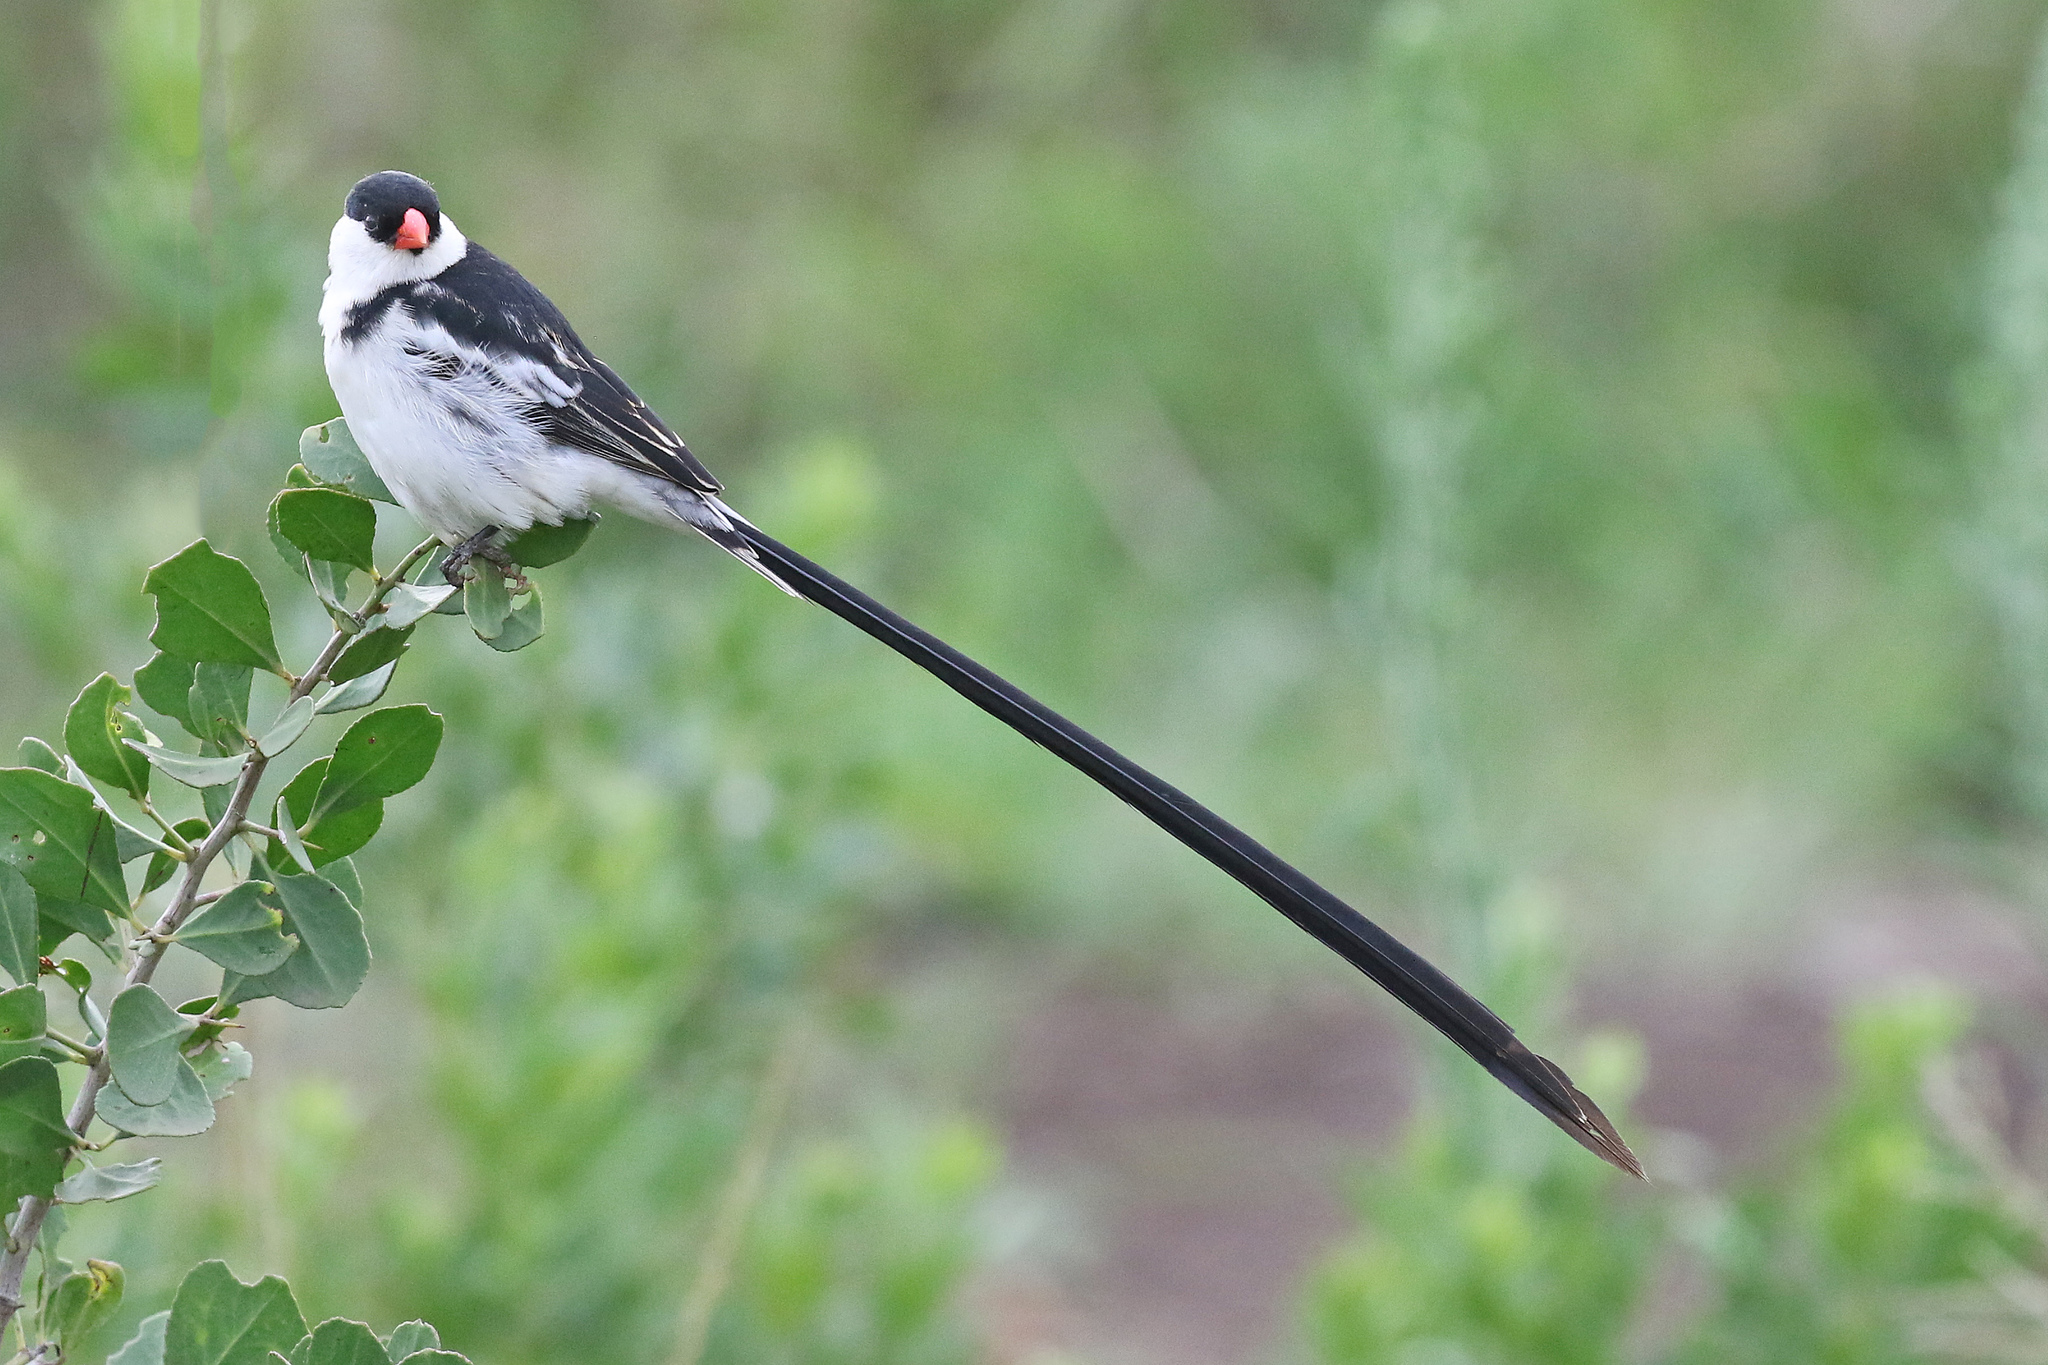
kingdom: Animalia
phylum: Chordata
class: Aves
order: Passeriformes
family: Viduidae
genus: Vidua
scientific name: Vidua macroura
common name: Pin-tailed whydah
